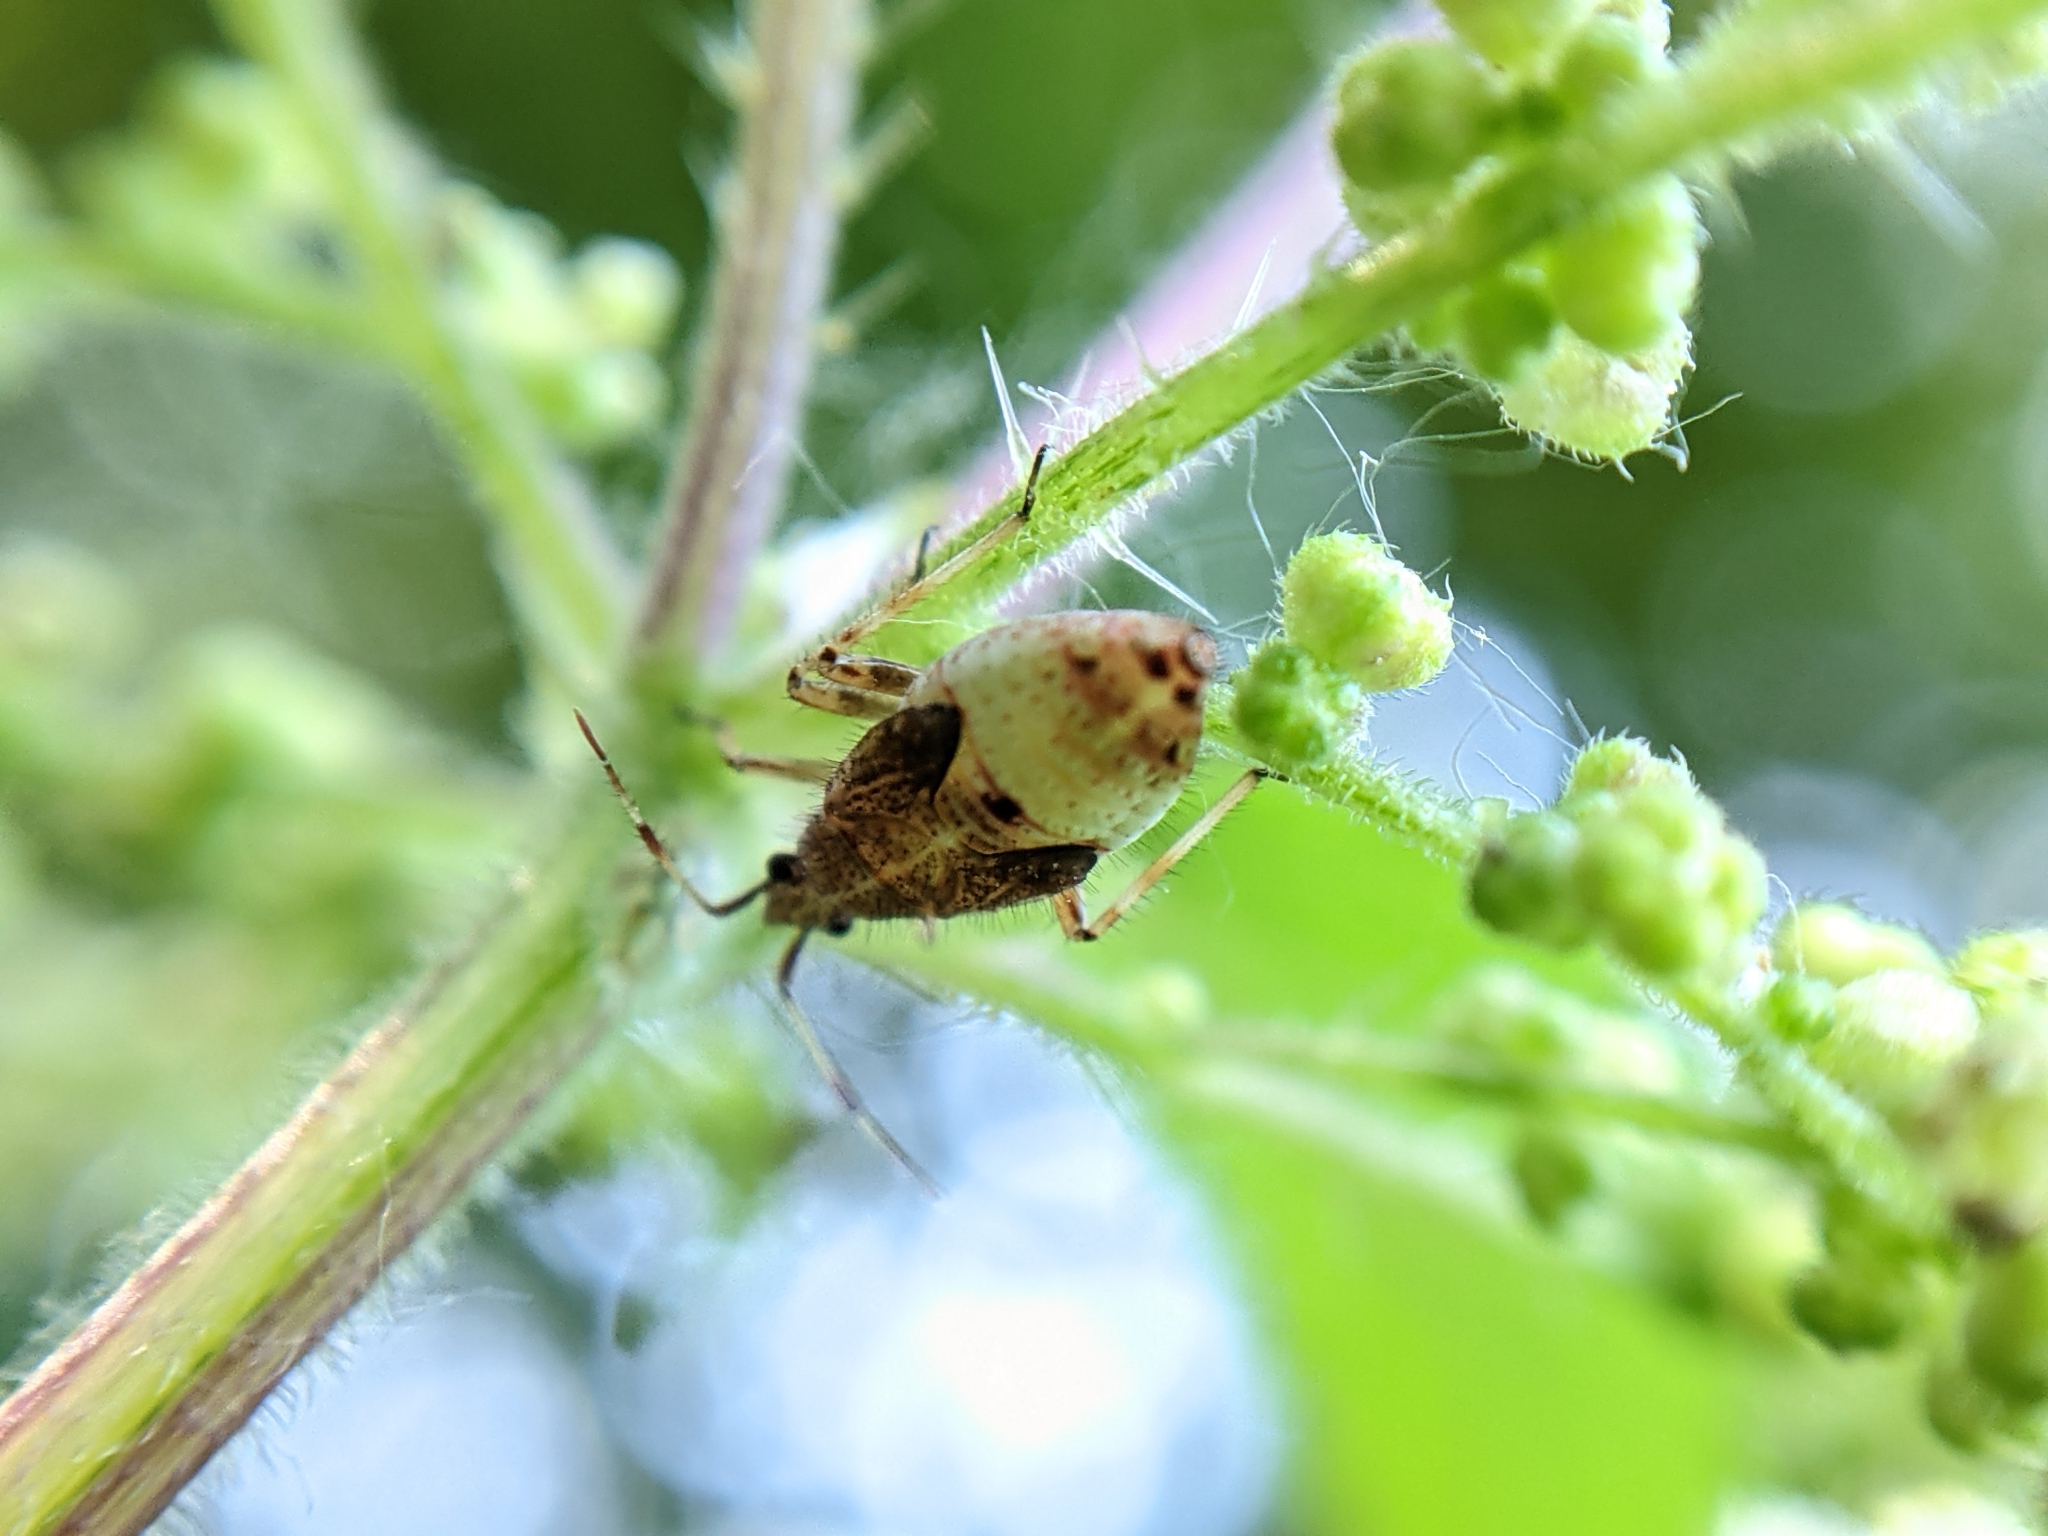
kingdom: Animalia
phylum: Arthropoda
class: Insecta
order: Hemiptera
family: Miridae
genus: Deraeocoris
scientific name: Deraeocoris flavilinea
